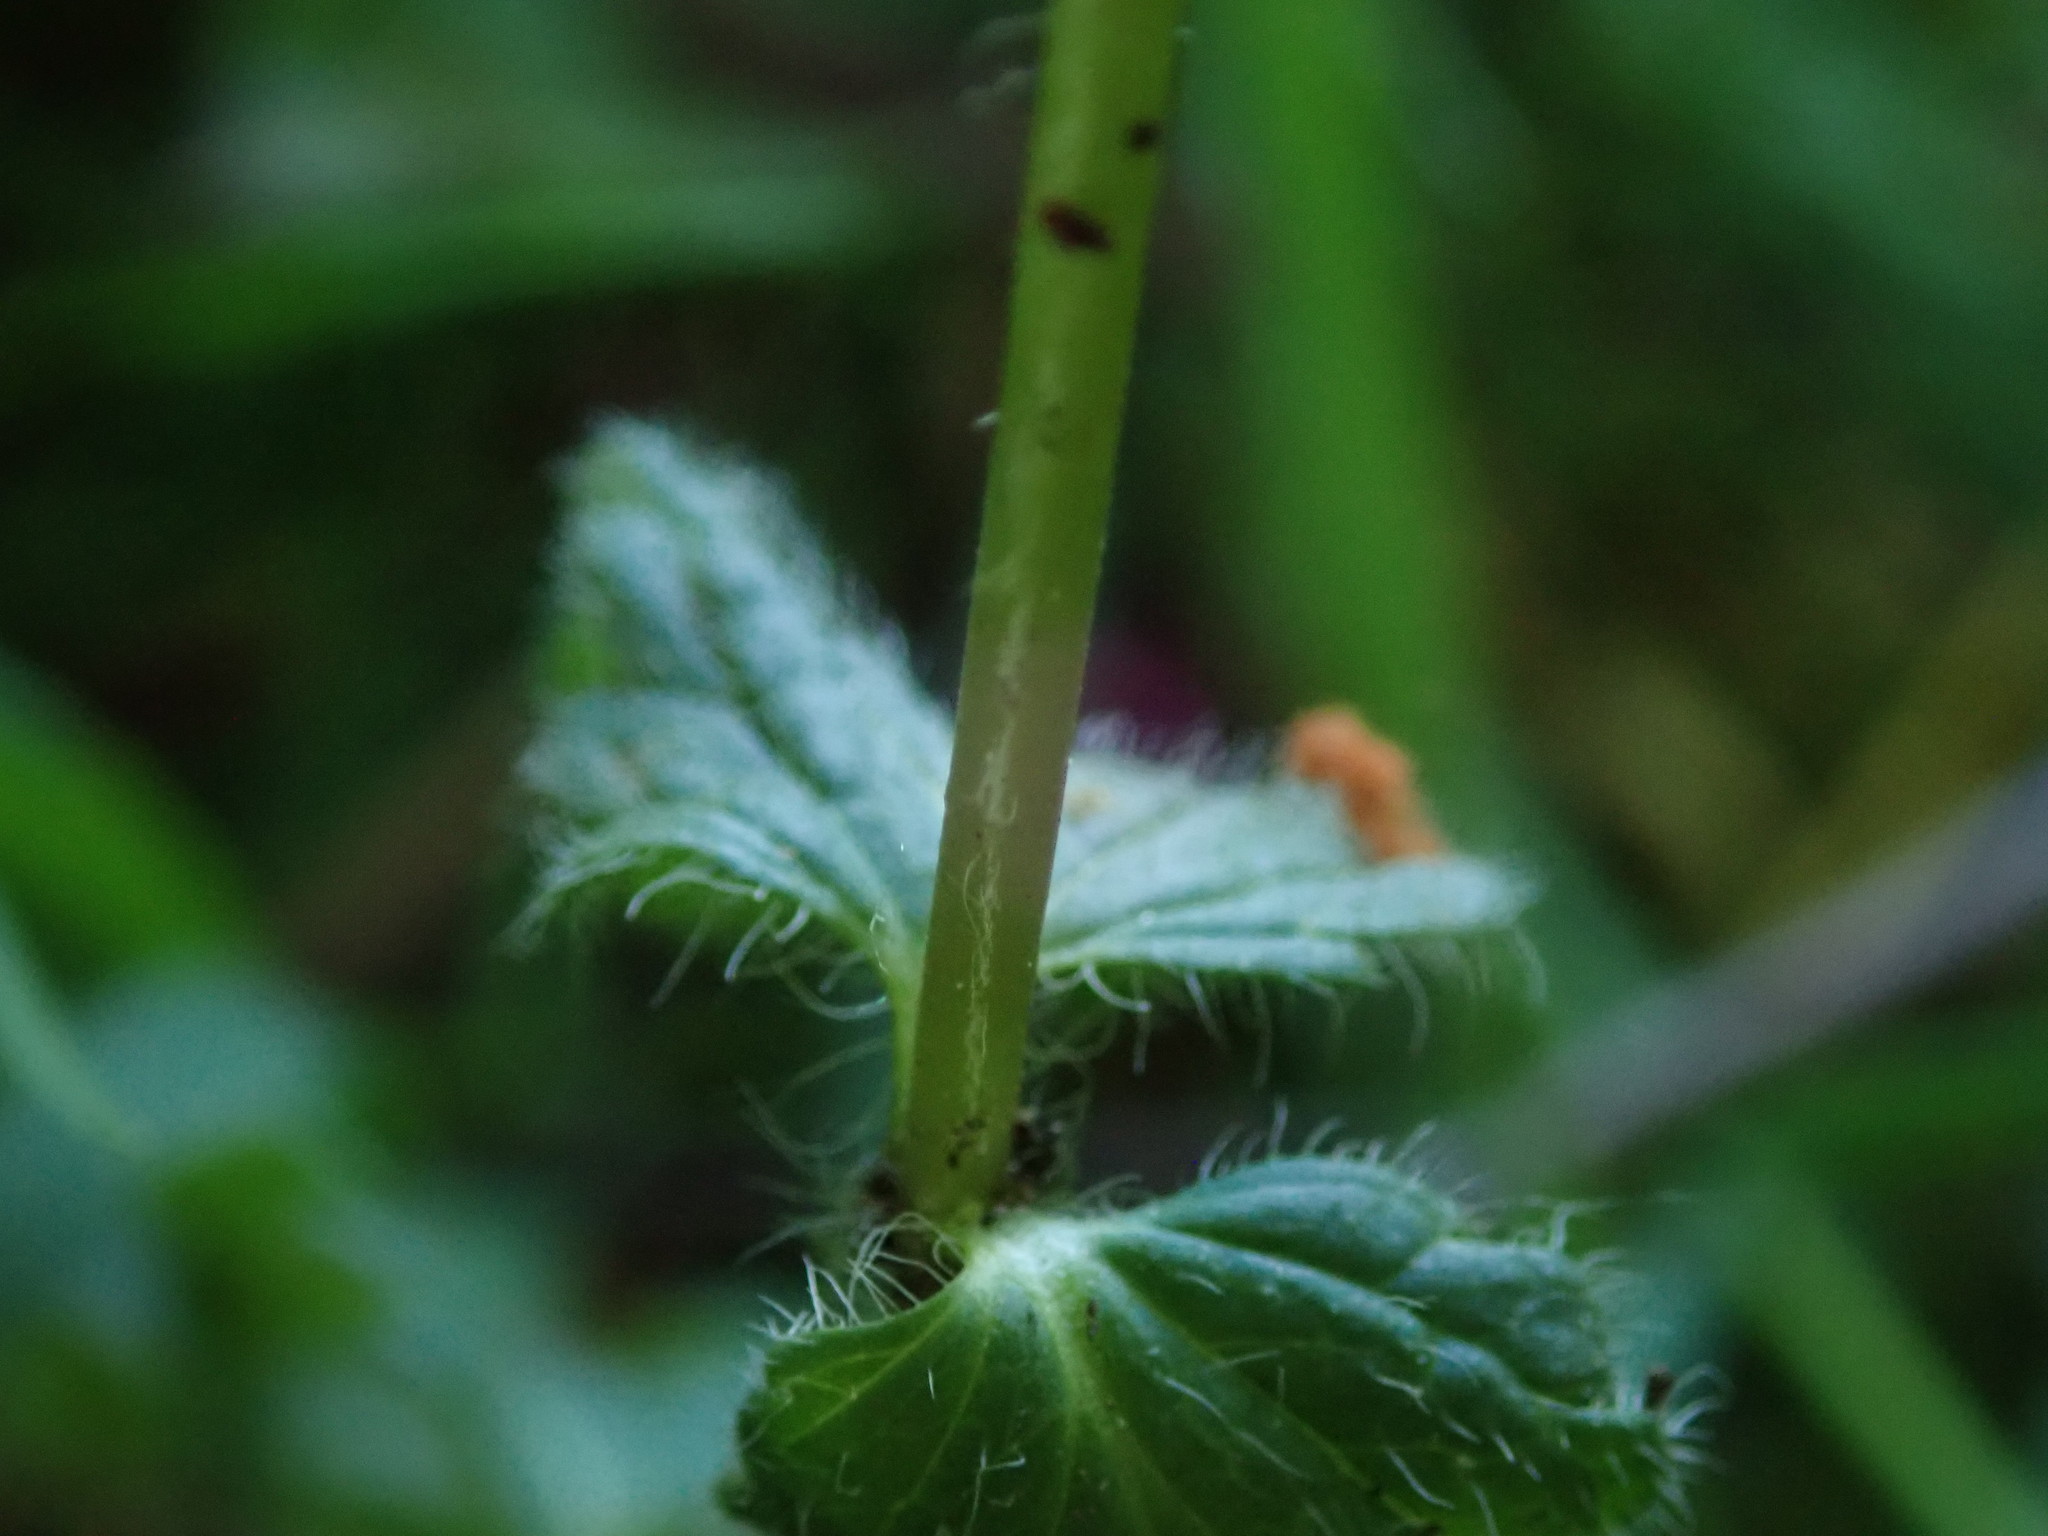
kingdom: Plantae
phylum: Tracheophyta
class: Magnoliopsida
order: Lamiales
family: Plantaginaceae
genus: Veronica
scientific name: Veronica chamaedrys
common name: Germander speedwell
